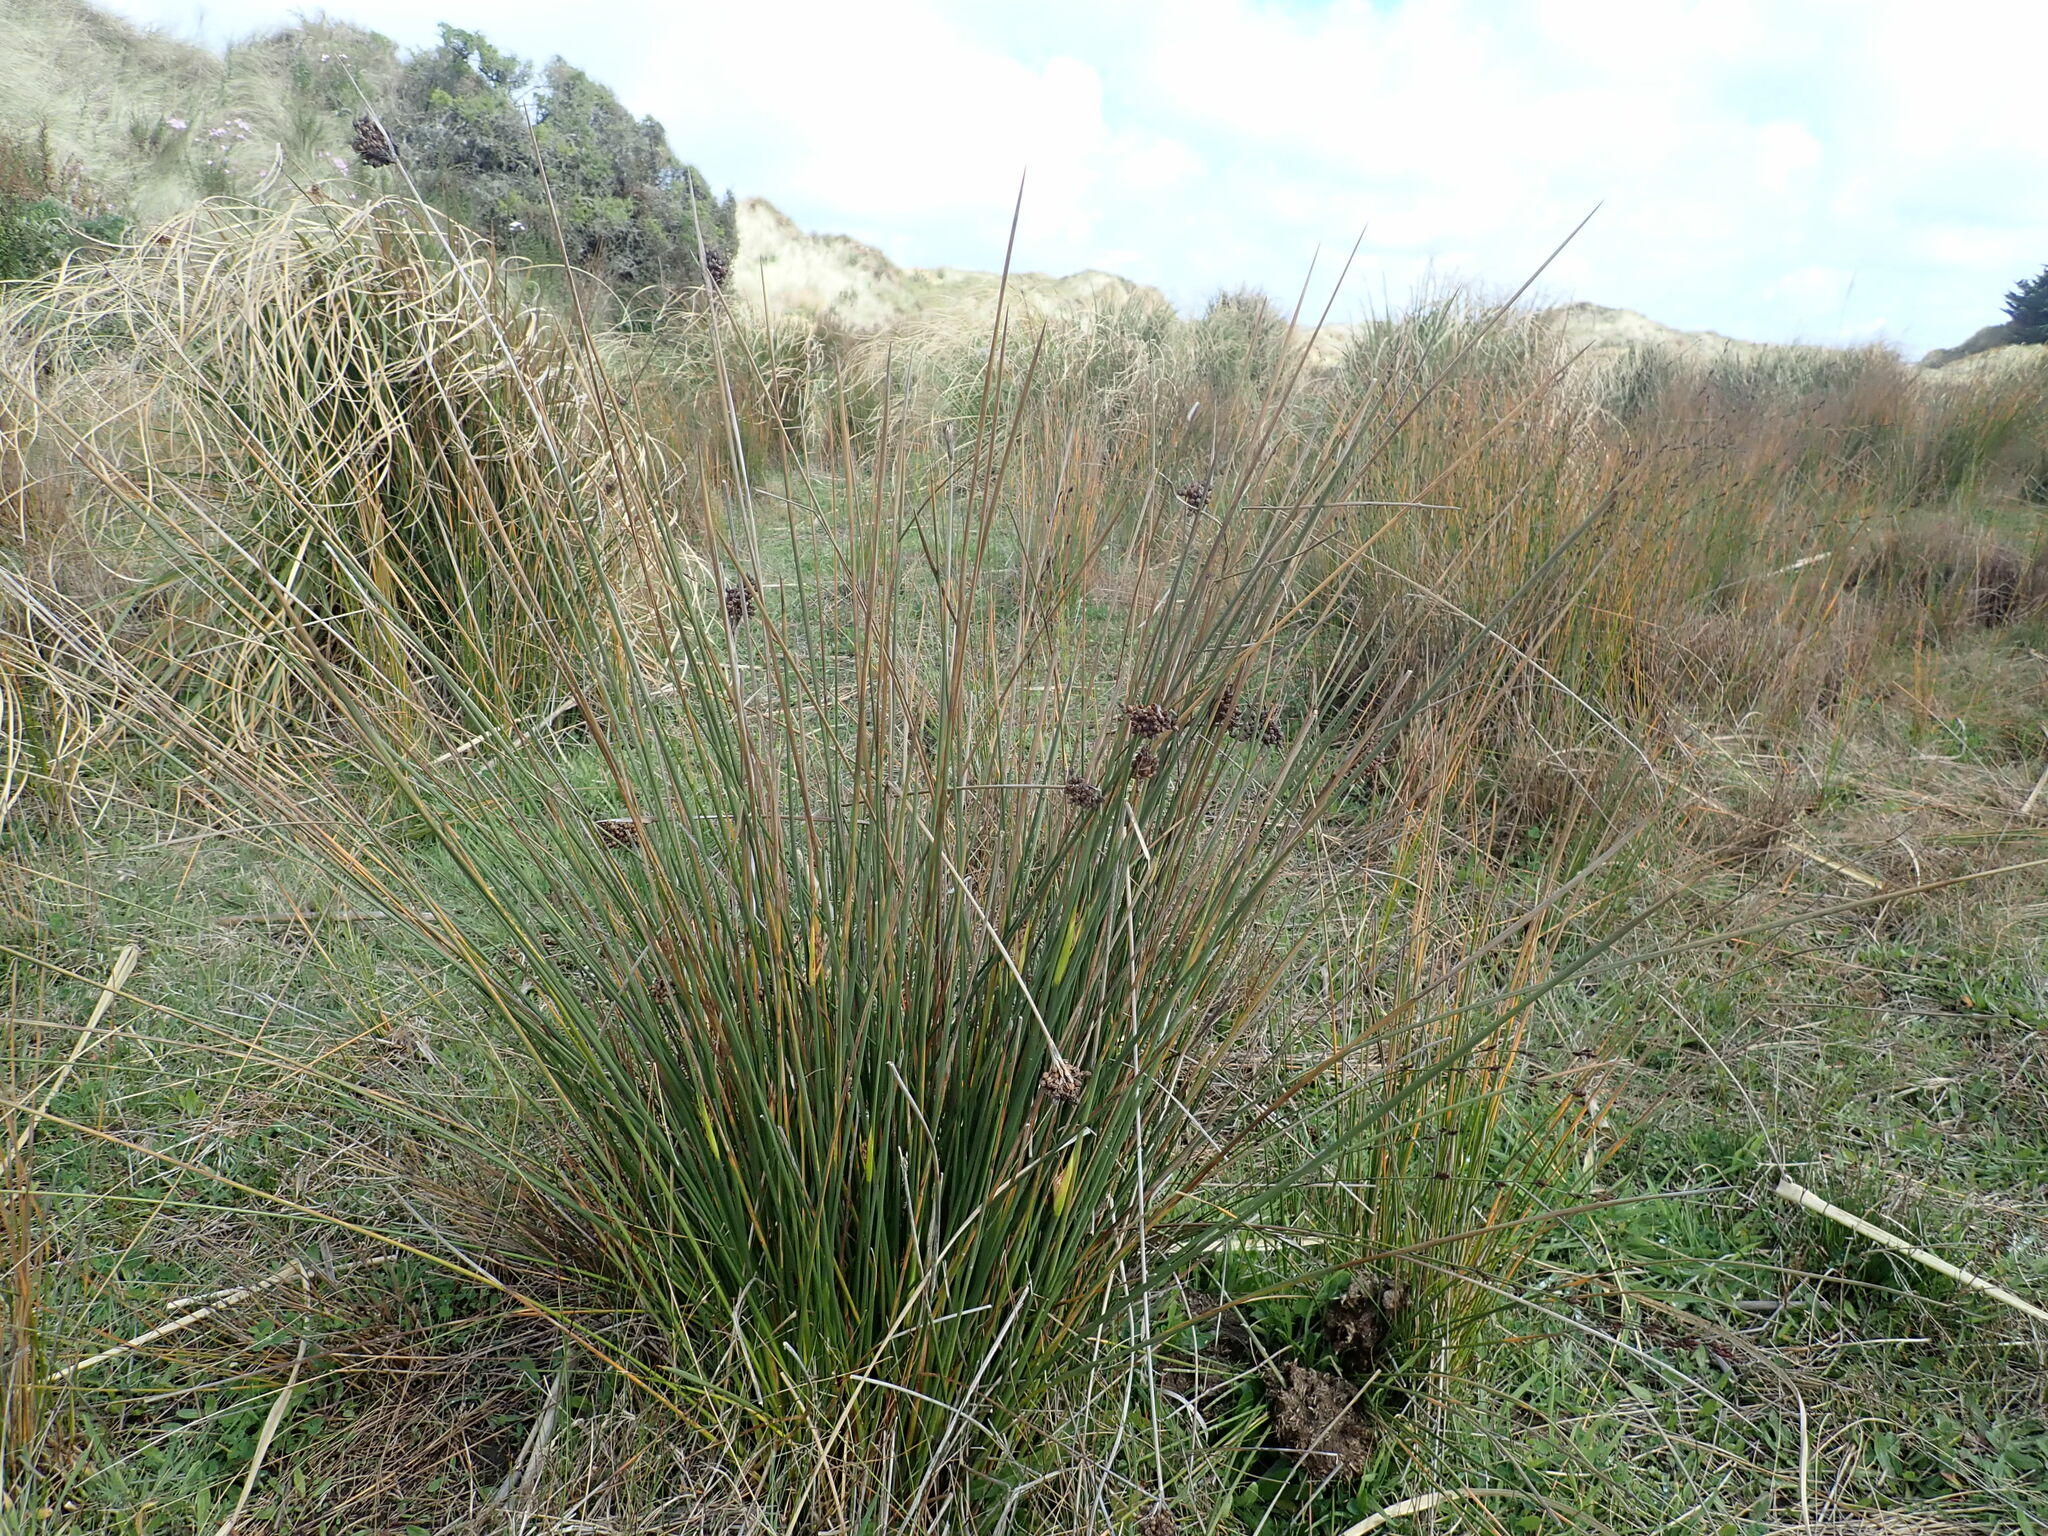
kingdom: Plantae
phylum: Tracheophyta
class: Liliopsida
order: Poales
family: Juncaceae
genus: Juncus
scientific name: Juncus acutus
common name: Sharp rush
